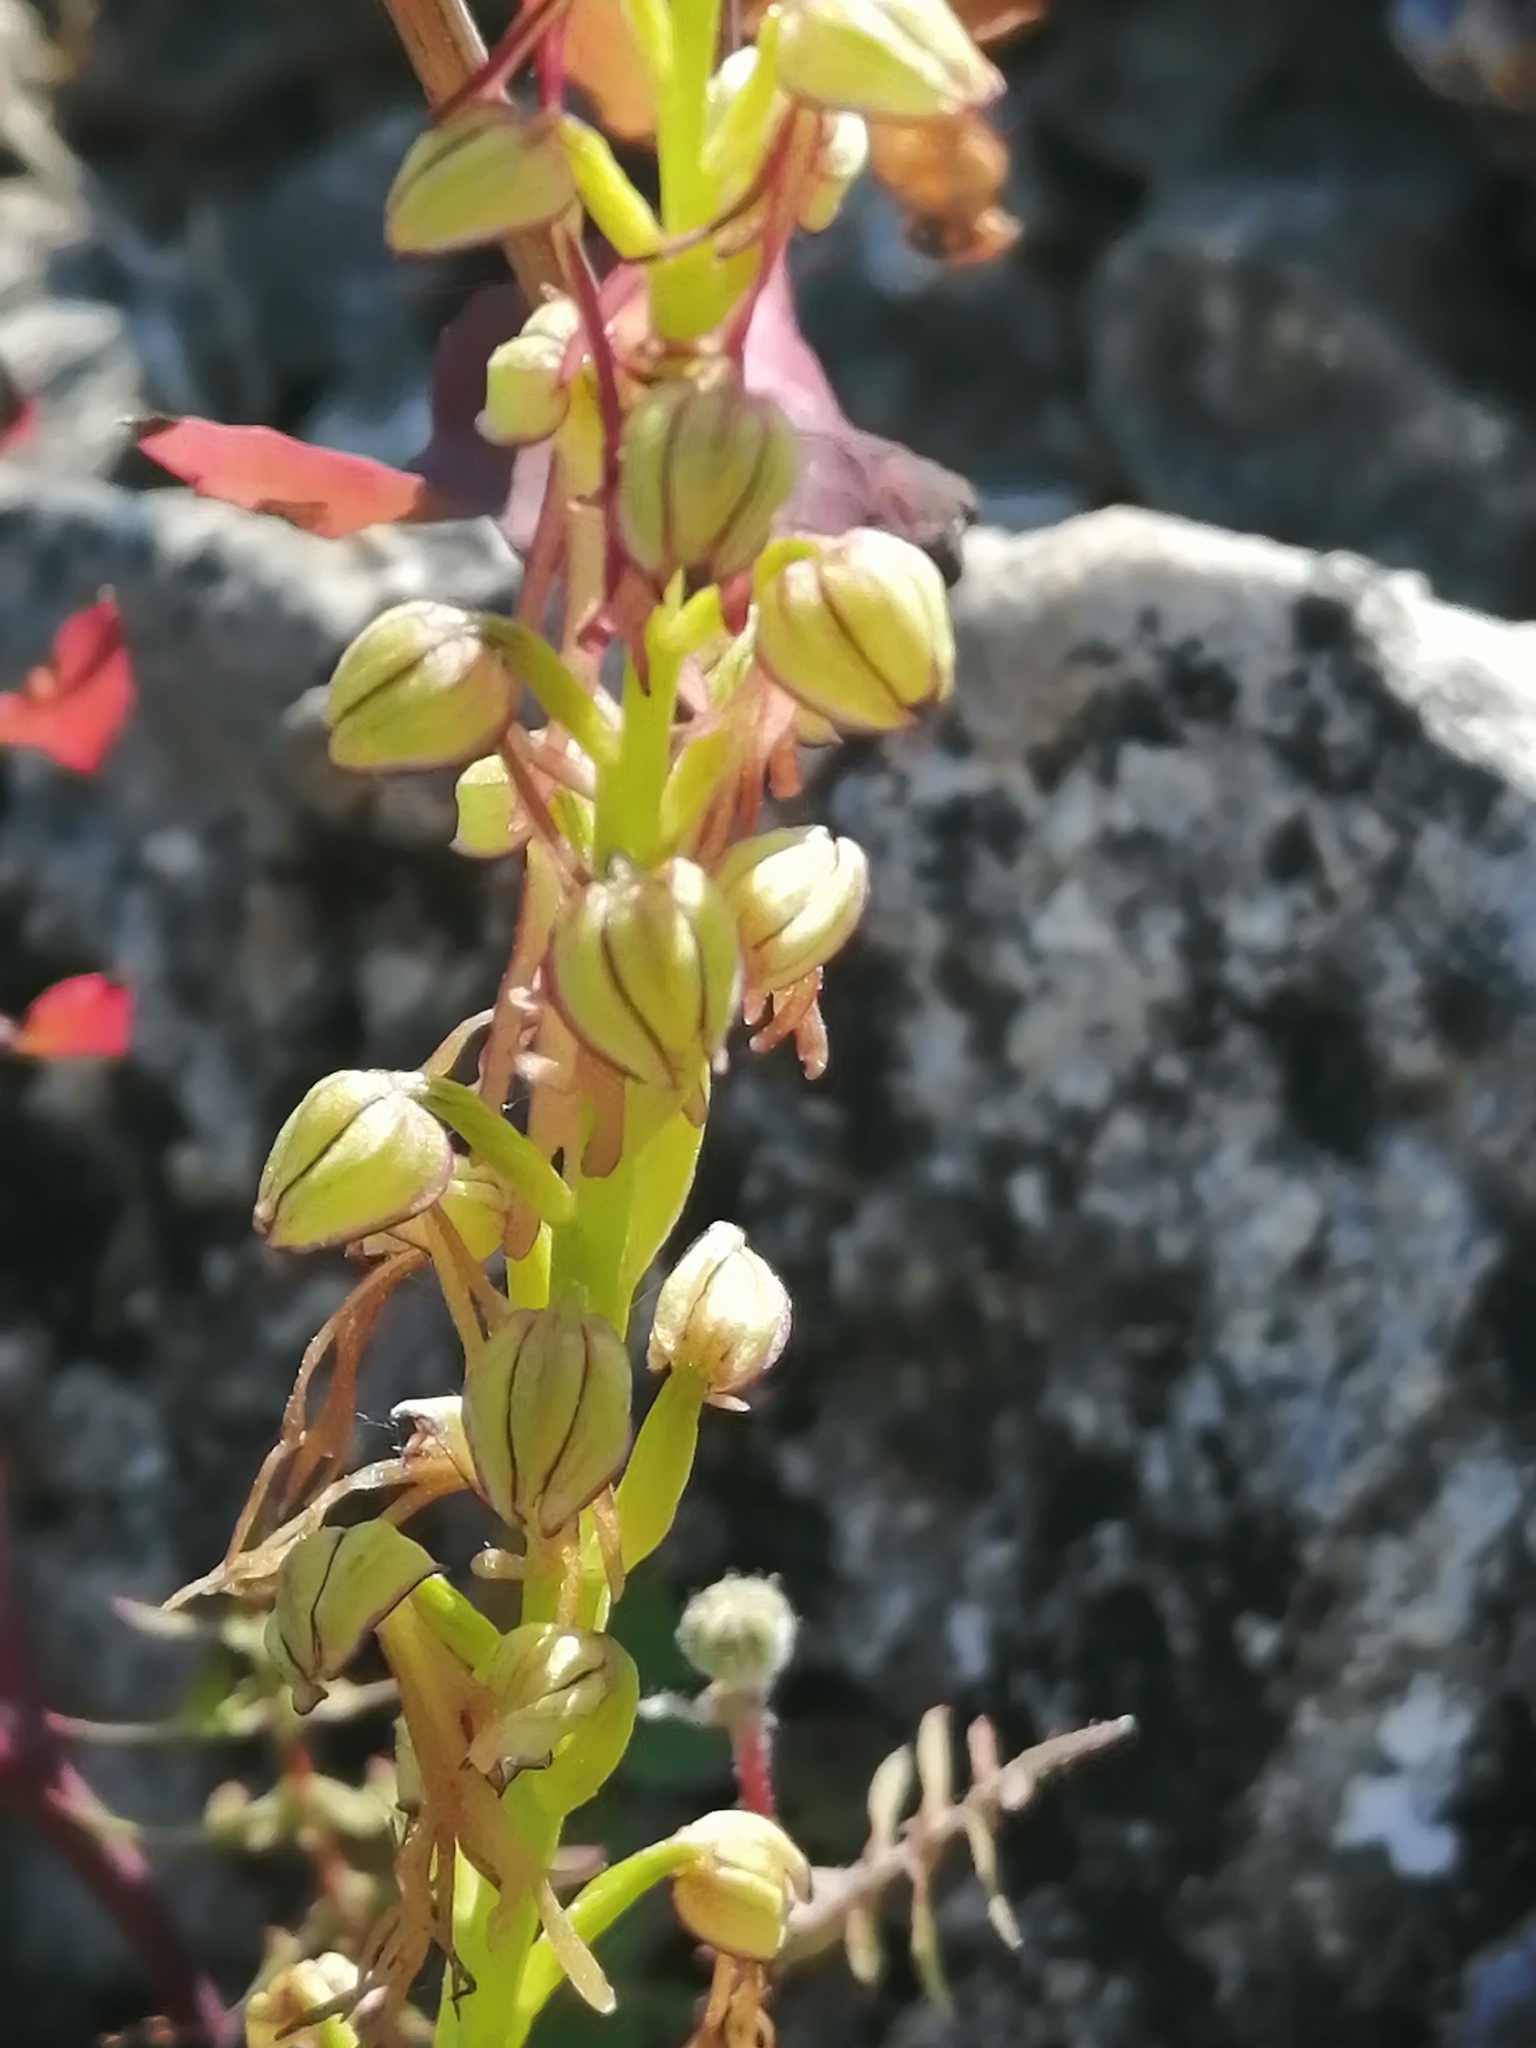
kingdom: Plantae
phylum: Tracheophyta
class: Liliopsida
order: Asparagales
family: Orchidaceae
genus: Orchis
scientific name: Orchis anthropophora
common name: Man orchid
